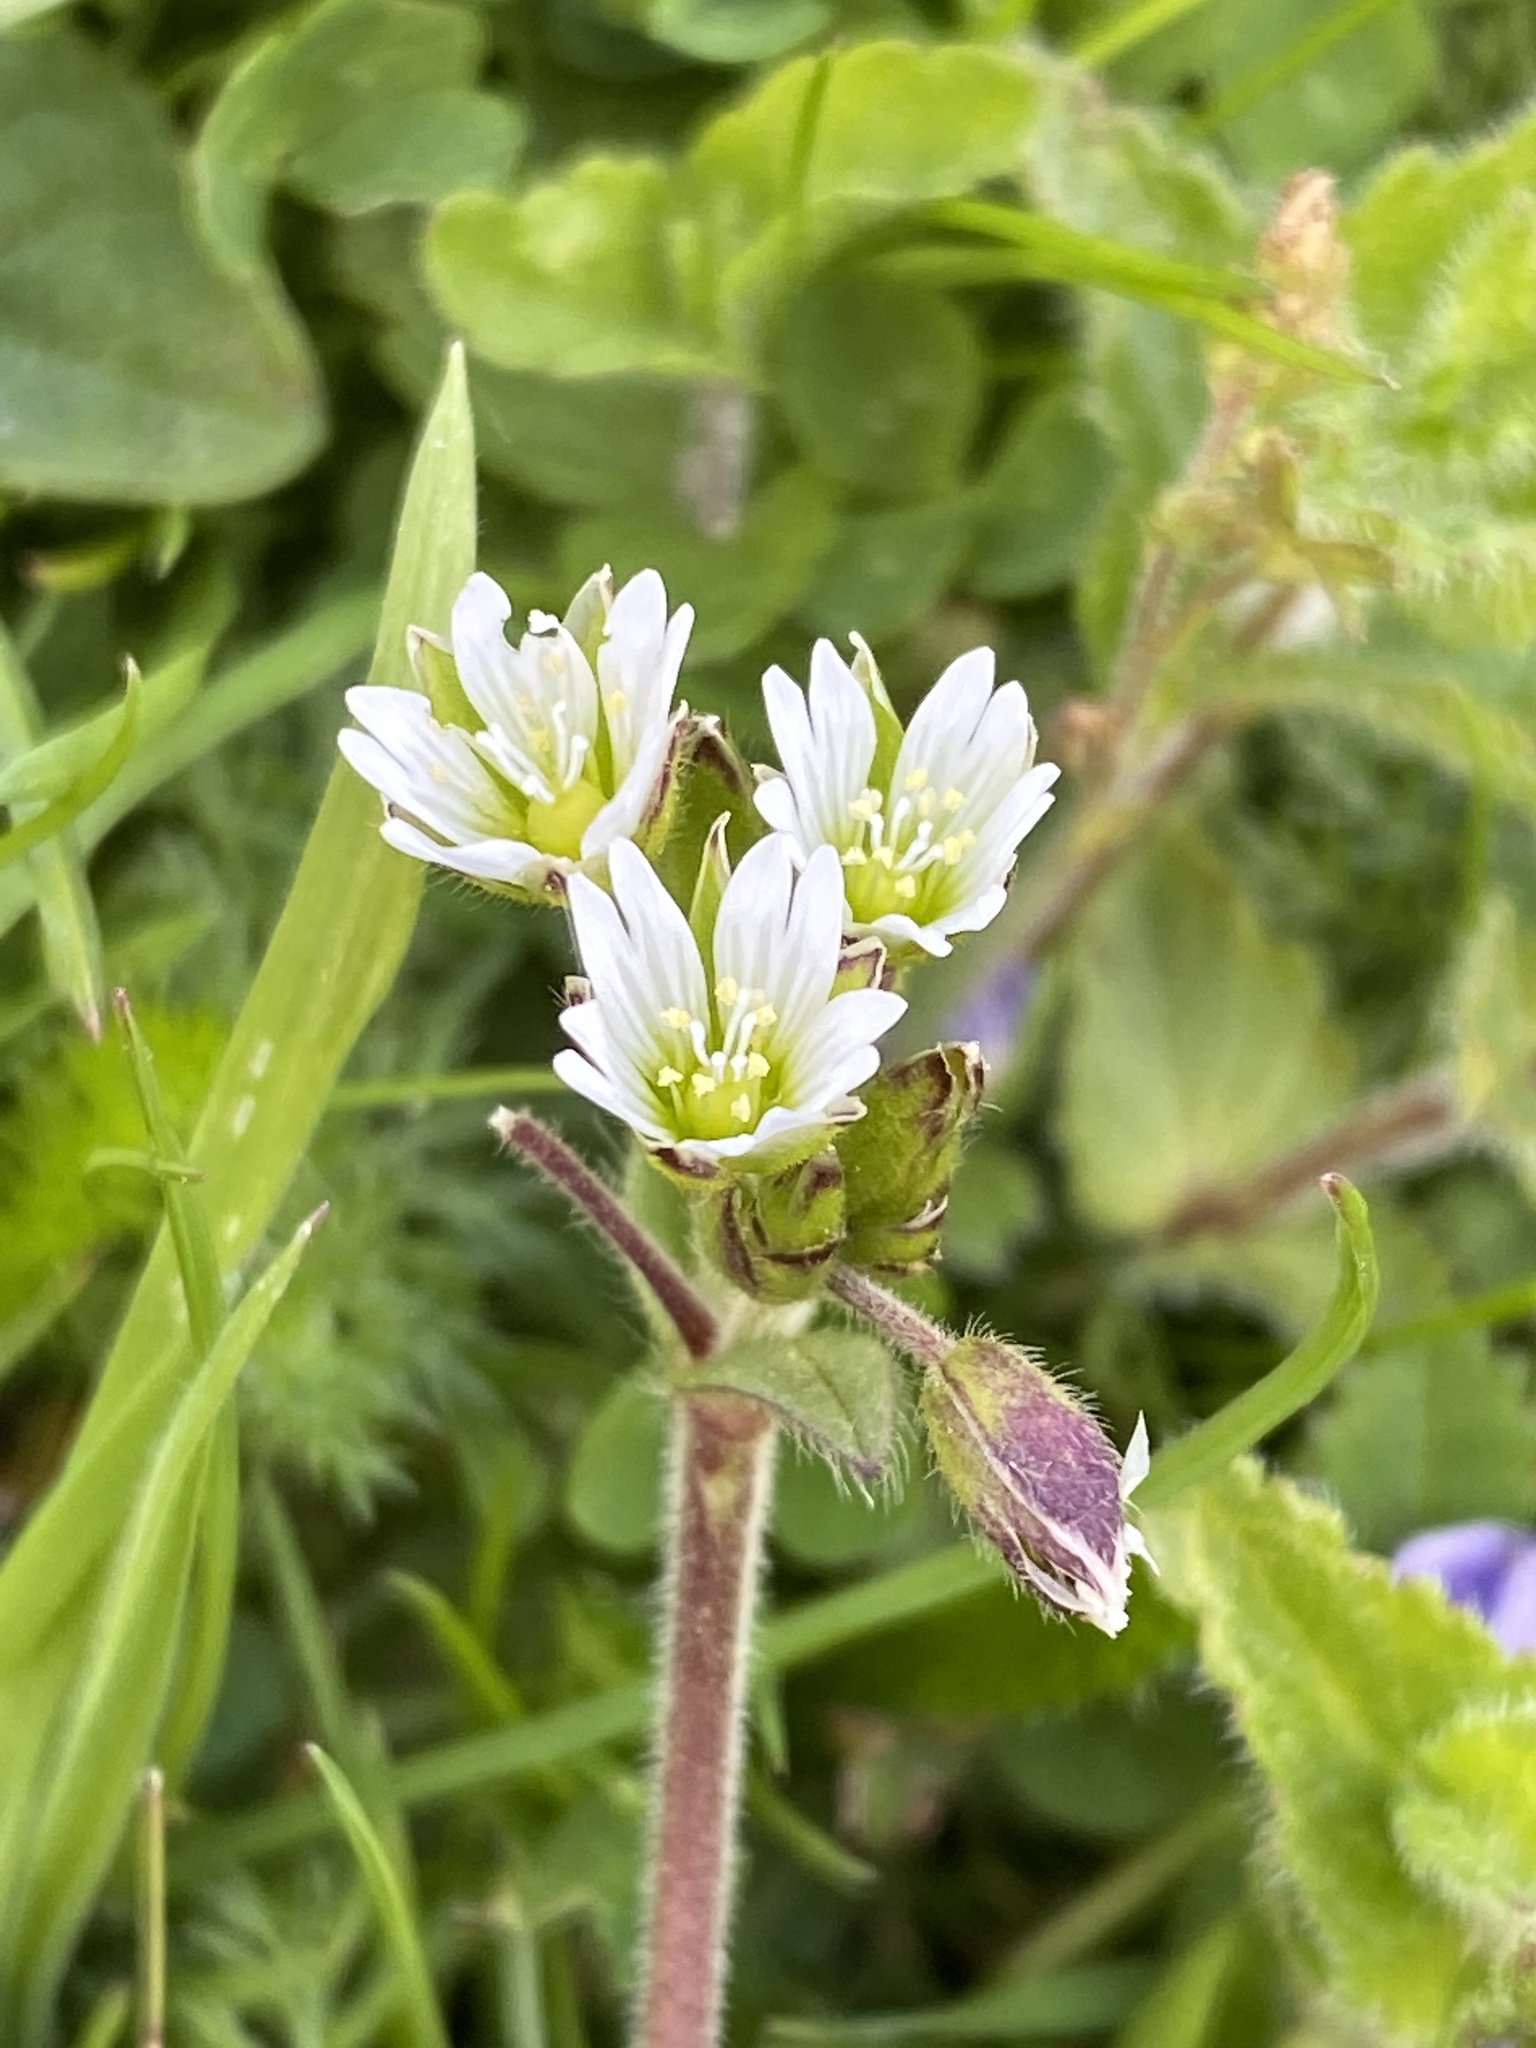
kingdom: Plantae
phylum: Tracheophyta
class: Magnoliopsida
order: Caryophyllales
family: Caryophyllaceae
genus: Cerastium
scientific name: Cerastium fontanum
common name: Common mouse-ear
